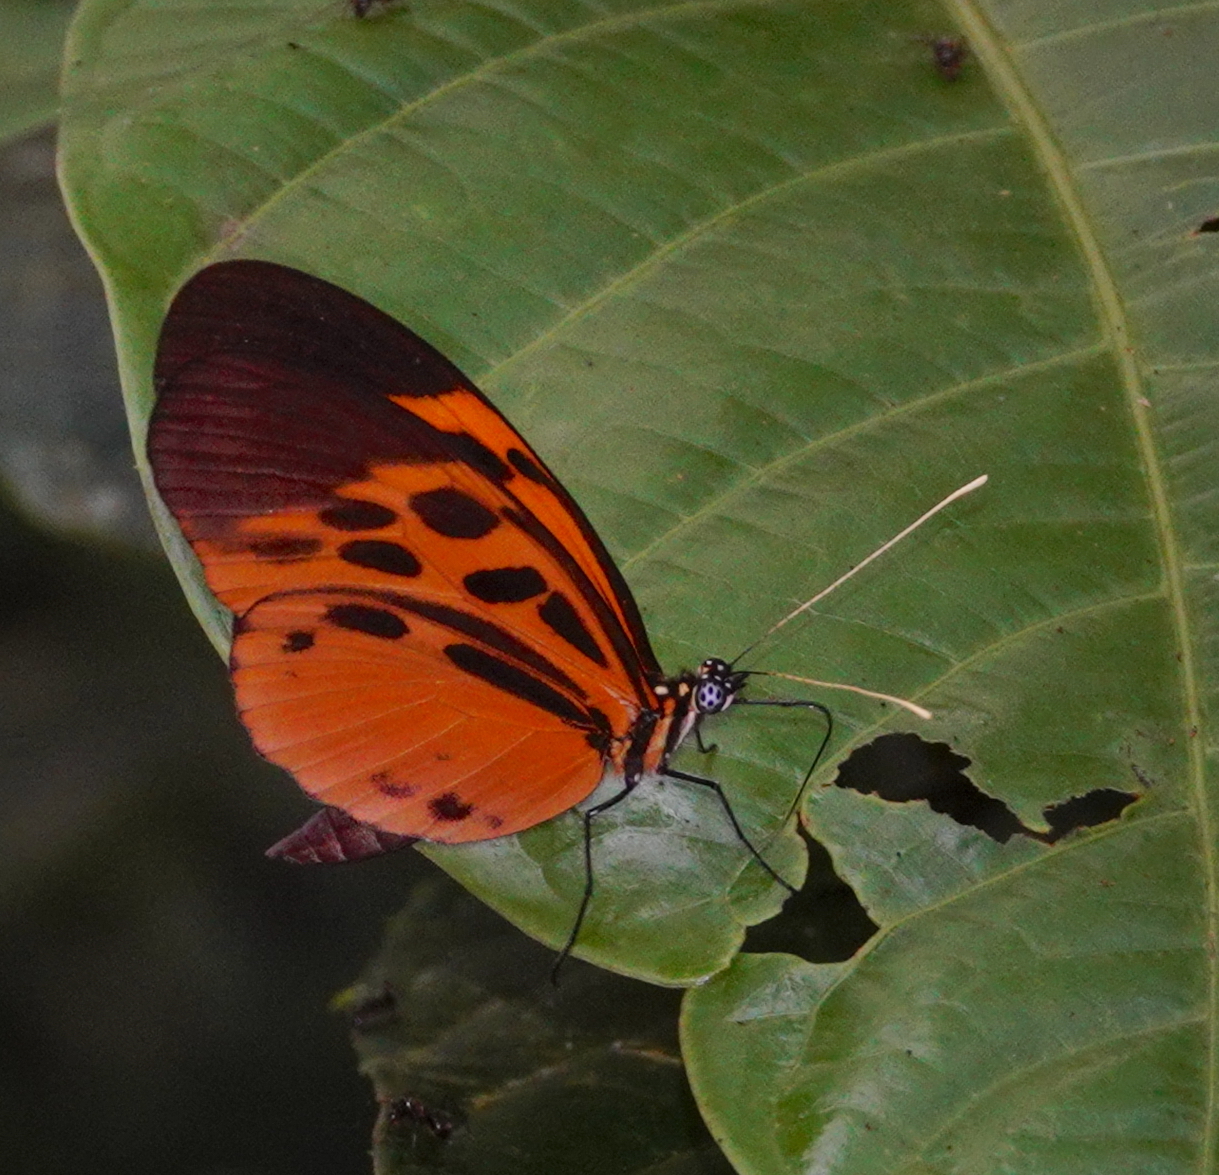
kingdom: Animalia
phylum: Arthropoda
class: Insecta
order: Lepidoptera
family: Nymphalidae
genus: Heliconius
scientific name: Heliconius numatus
